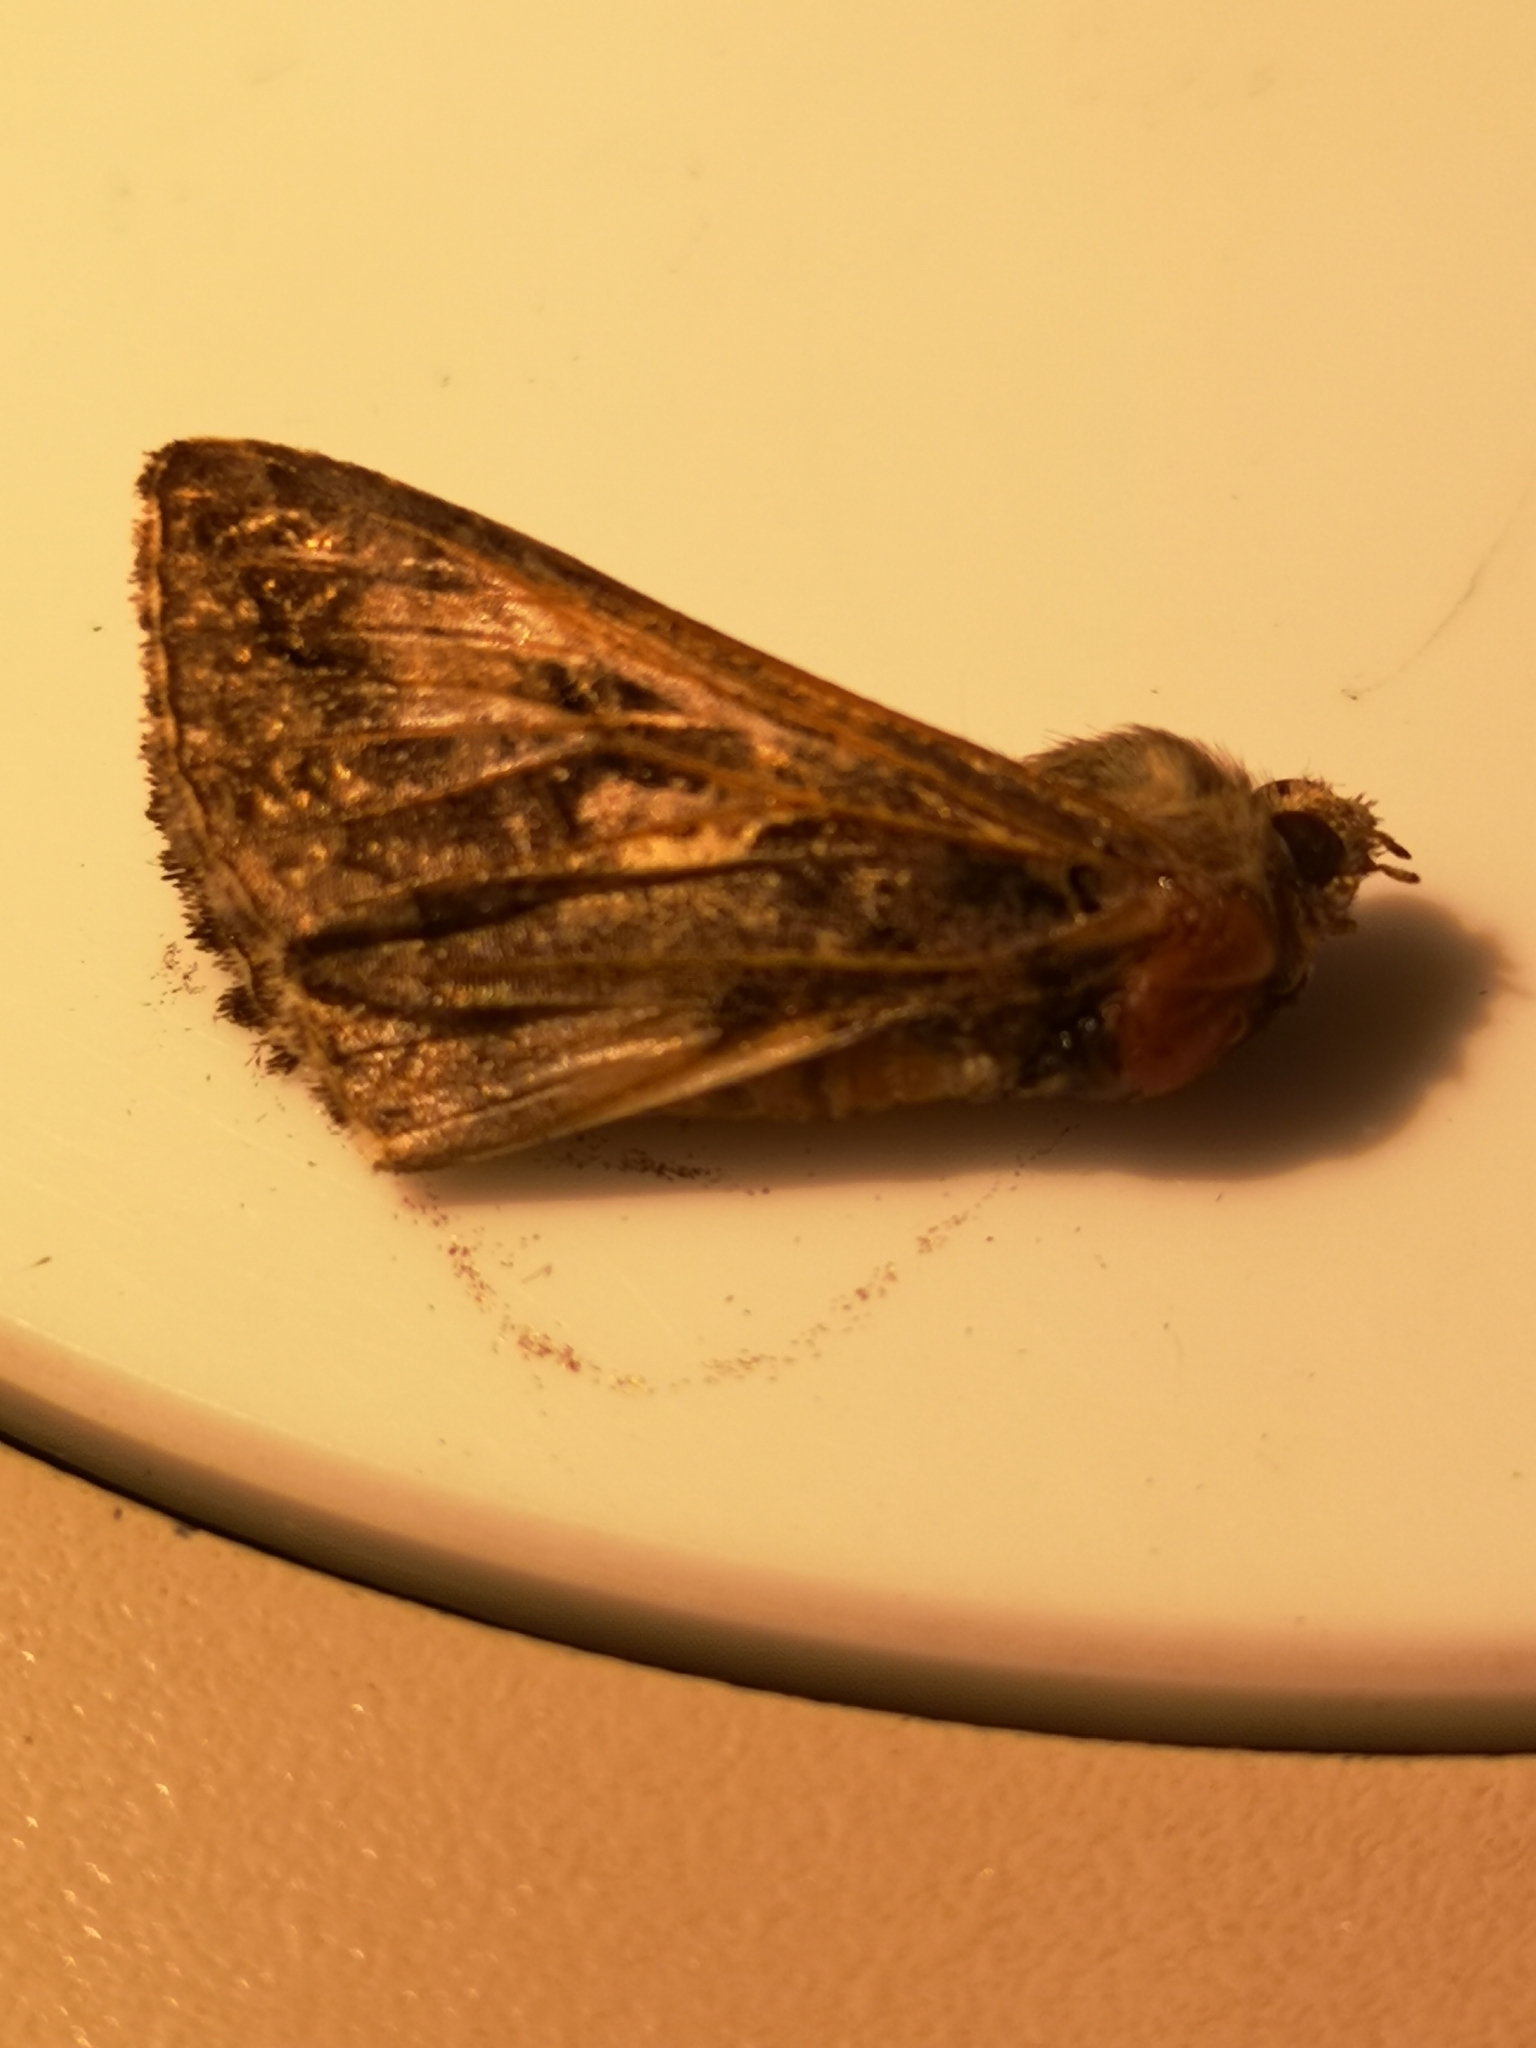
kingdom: Animalia
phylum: Arthropoda
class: Insecta
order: Lepidoptera
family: Noctuidae
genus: Autographa
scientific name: Autographa gamma
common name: Silver y
